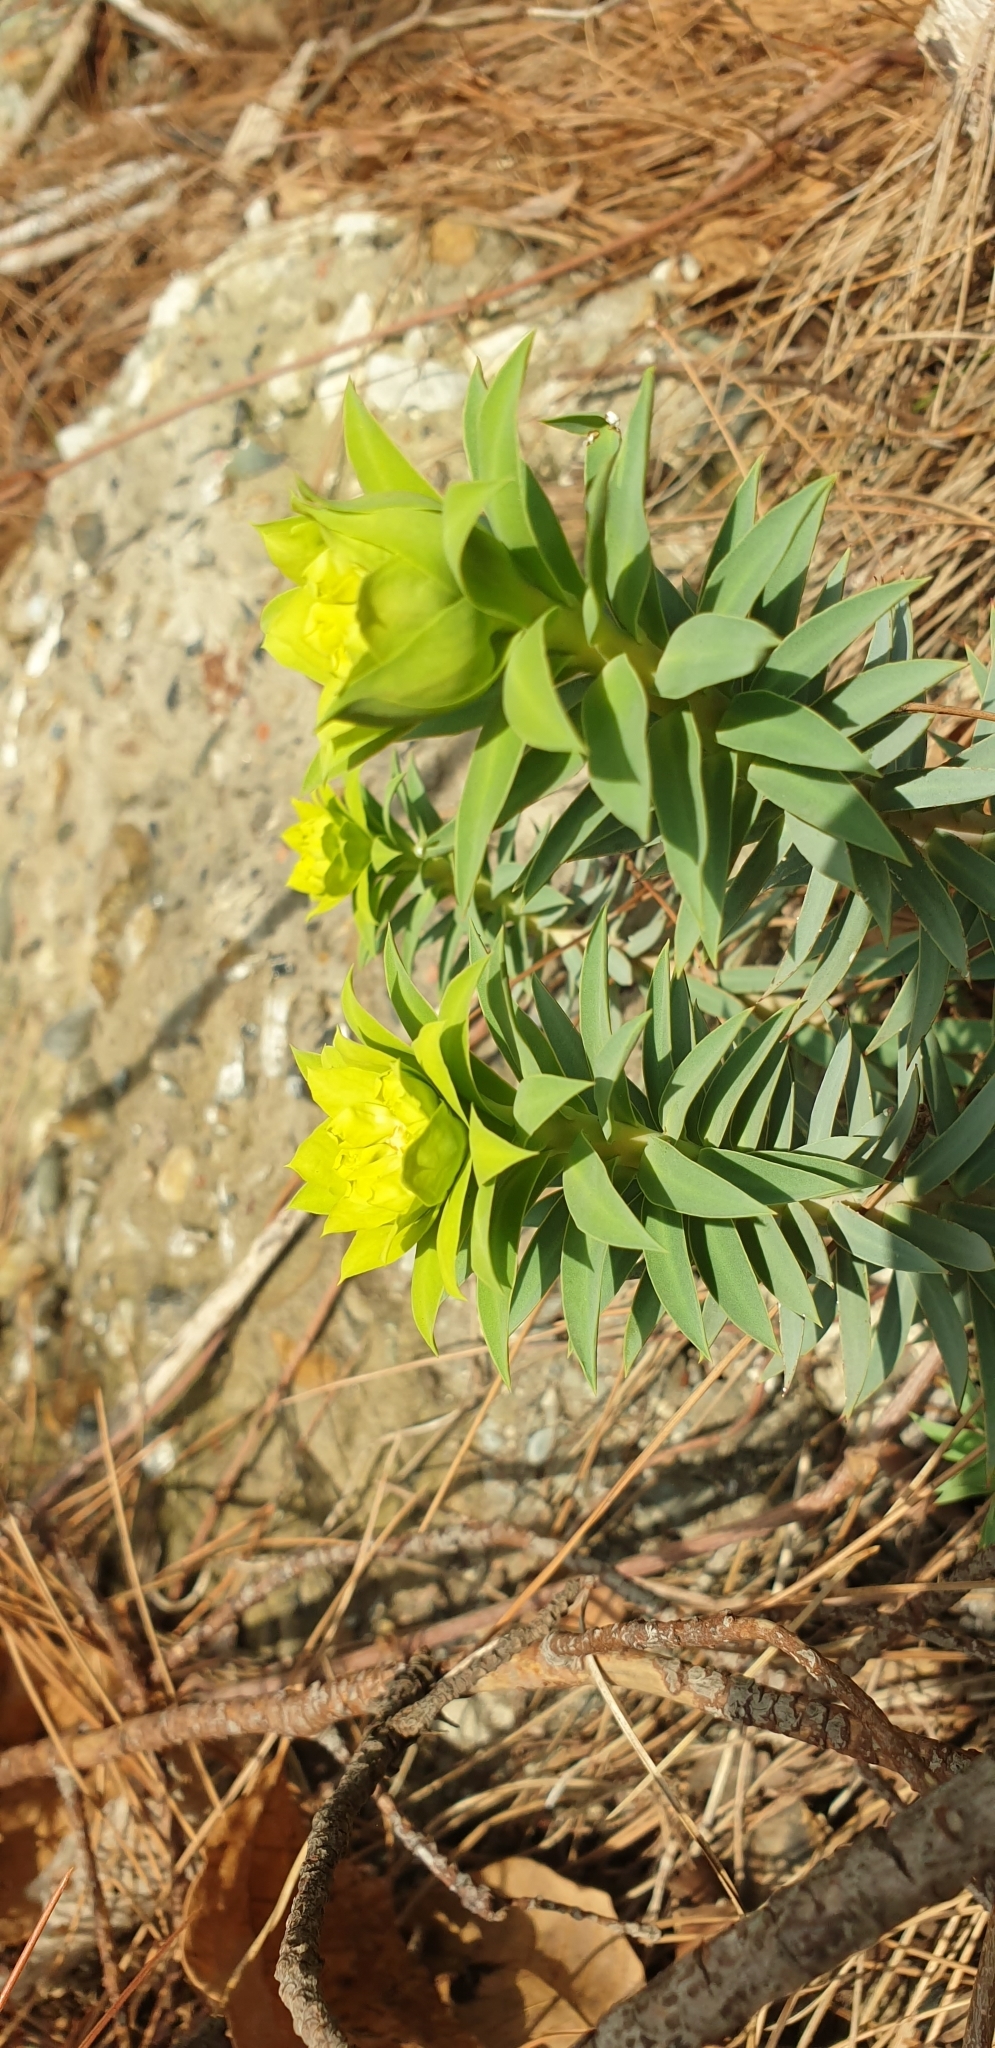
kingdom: Plantae
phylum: Tracheophyta
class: Magnoliopsida
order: Malpighiales
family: Euphorbiaceae
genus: Euphorbia
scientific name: Euphorbia rigida
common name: Upright myrtle spurge
